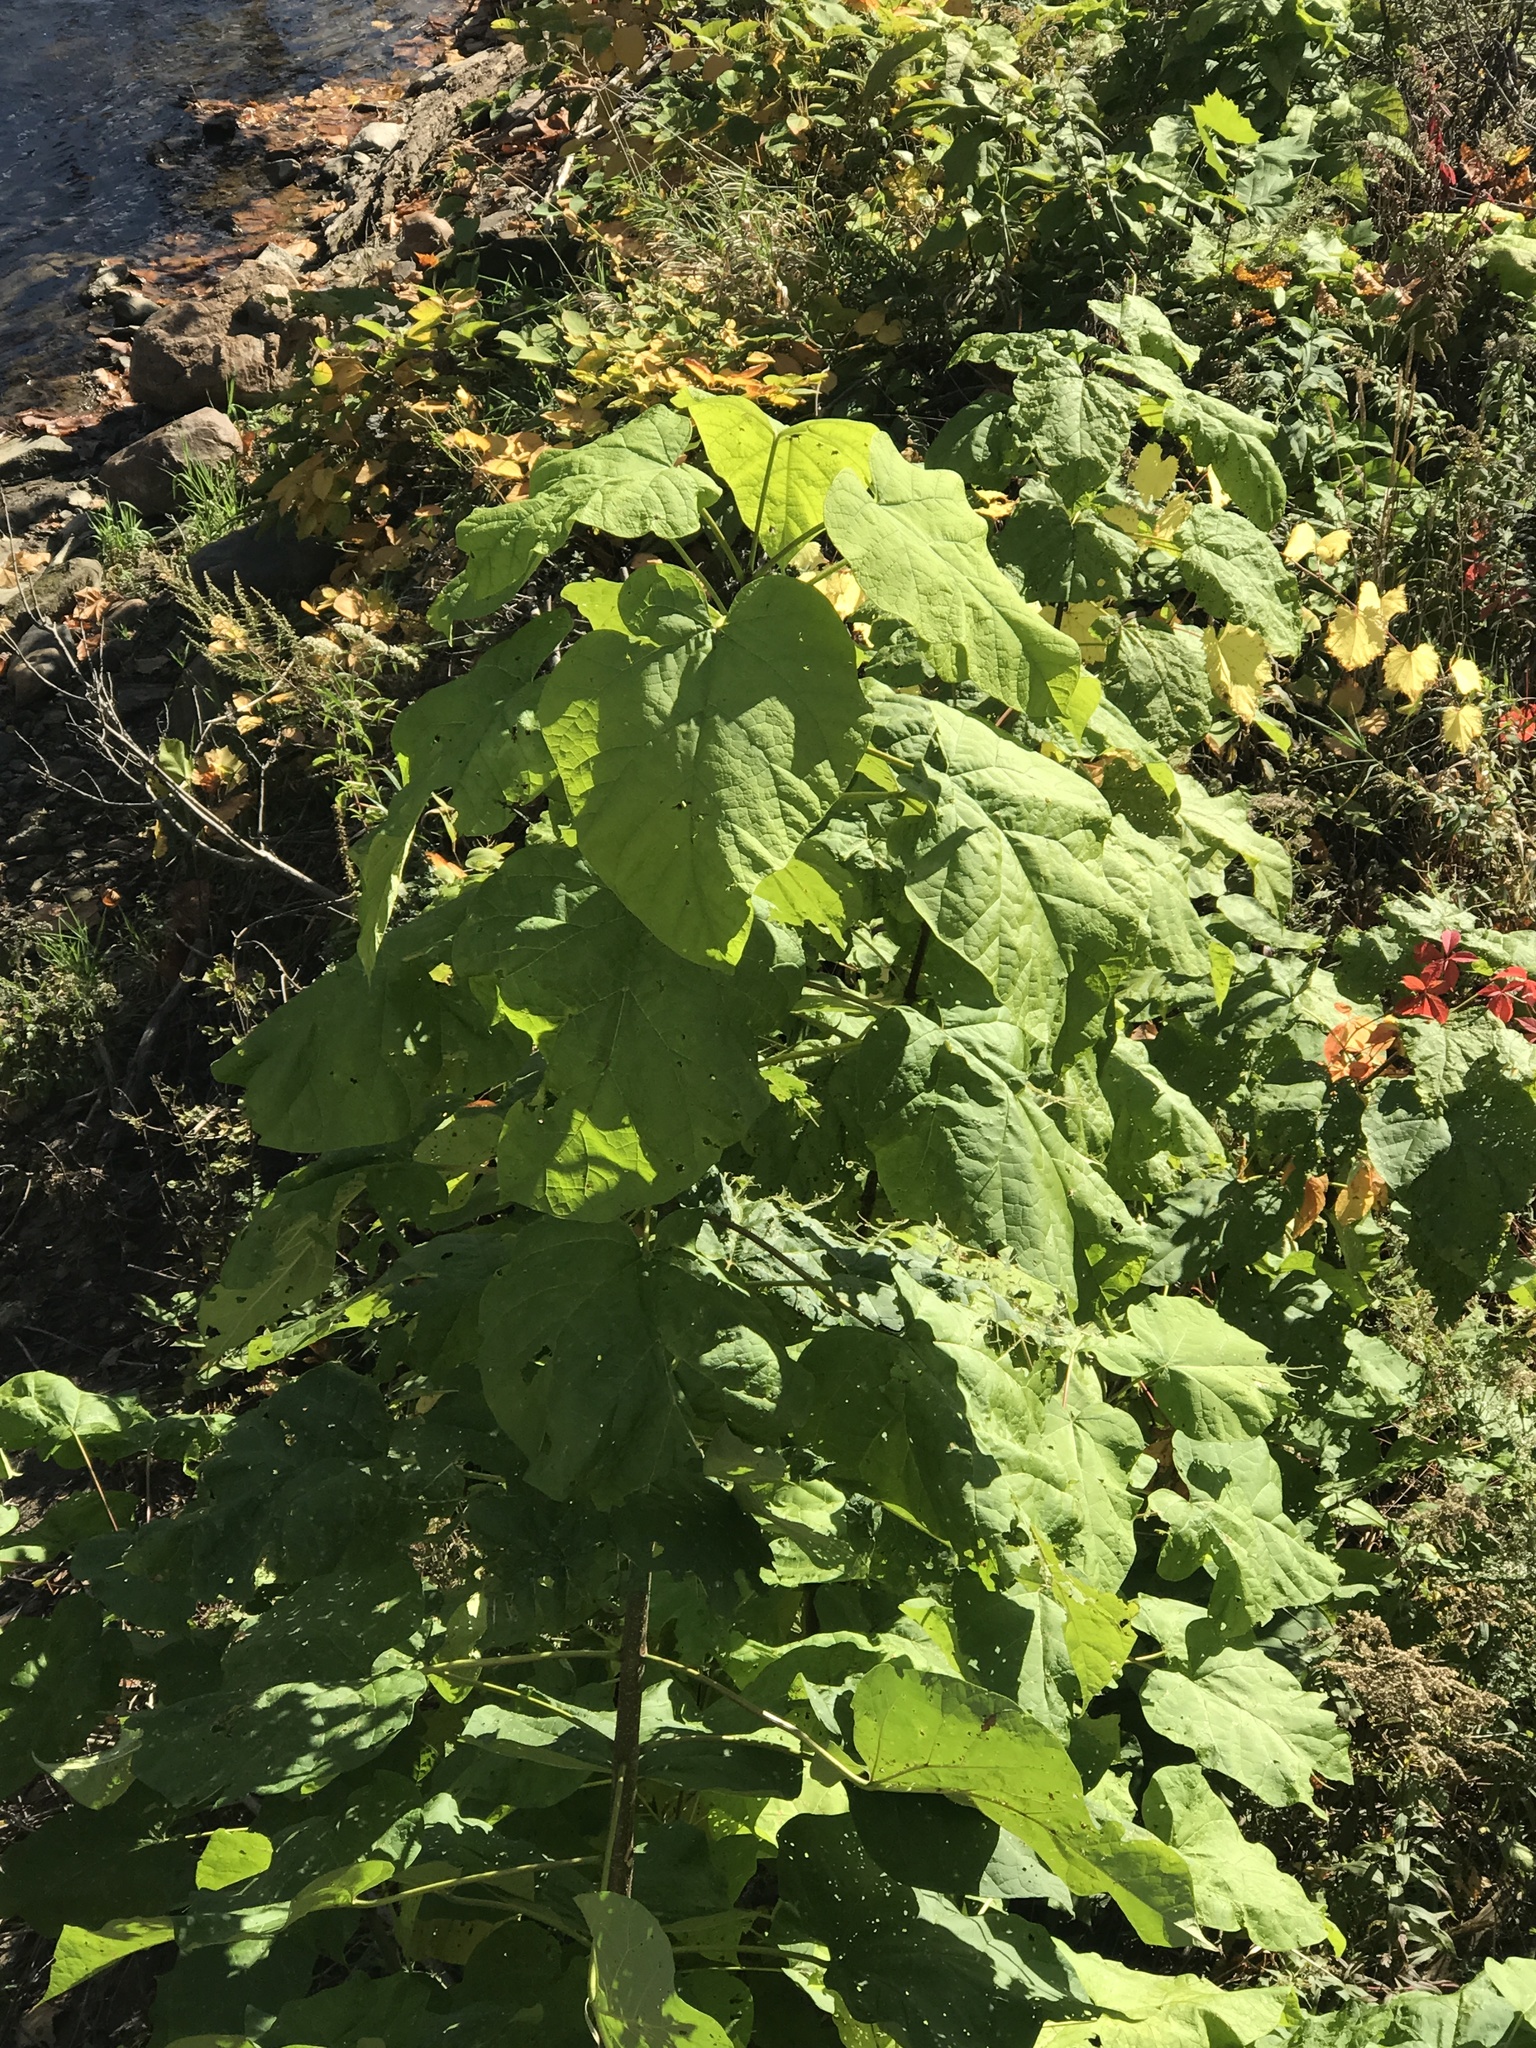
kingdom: Plantae
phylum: Tracheophyta
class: Magnoliopsida
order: Lamiales
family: Paulowniaceae
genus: Paulownia
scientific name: Paulownia tomentosa
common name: Foxglove-tree
